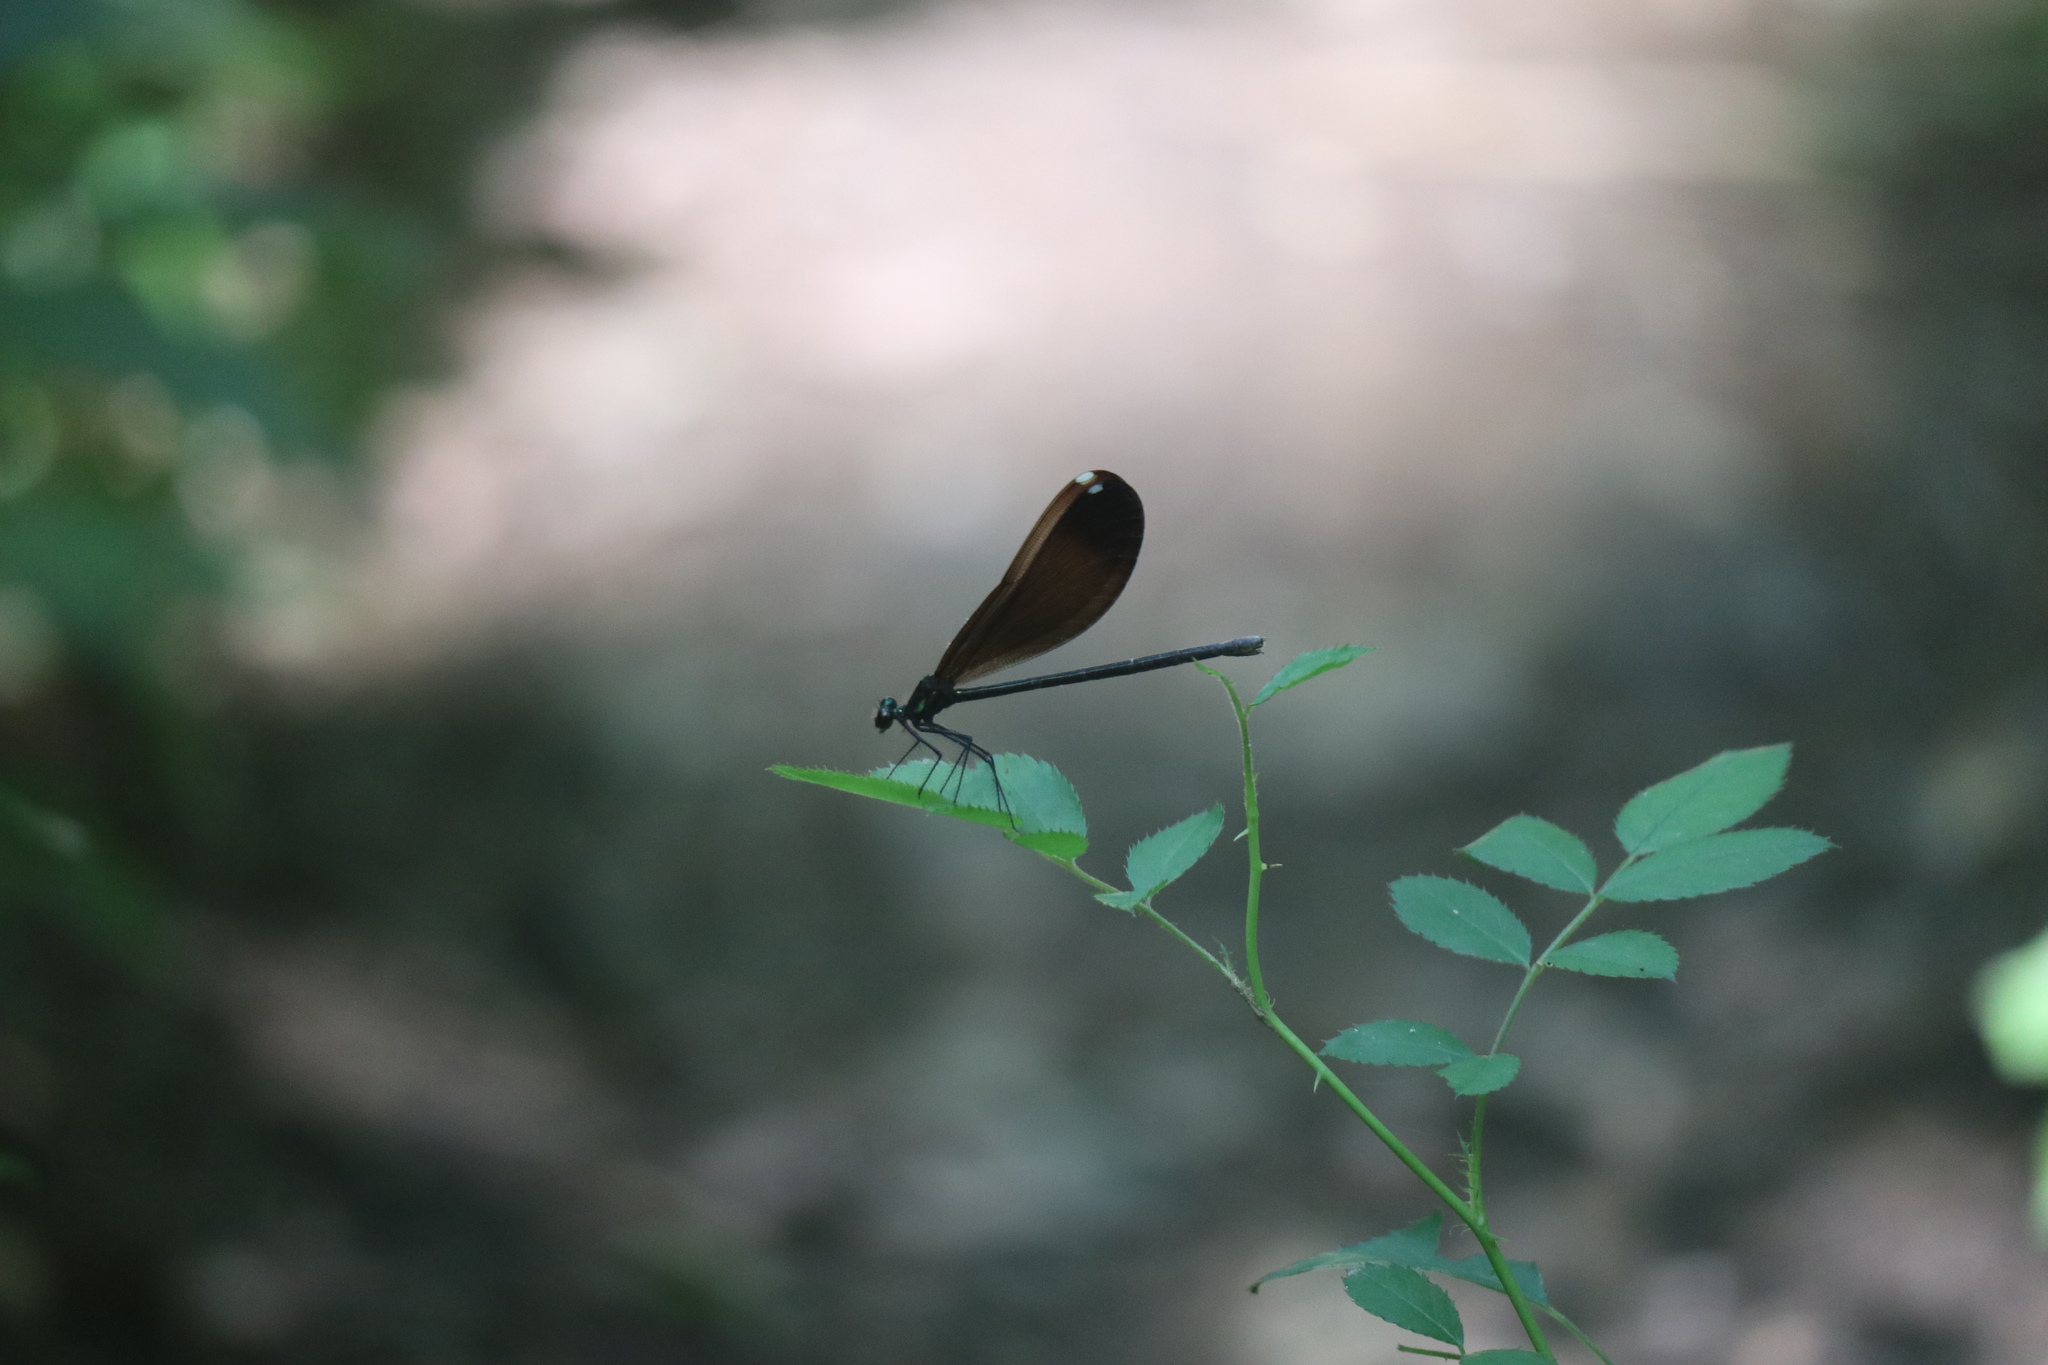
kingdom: Animalia
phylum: Arthropoda
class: Insecta
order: Odonata
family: Calopterygidae
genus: Calopteryx
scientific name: Calopteryx maculata
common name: Ebony jewelwing
